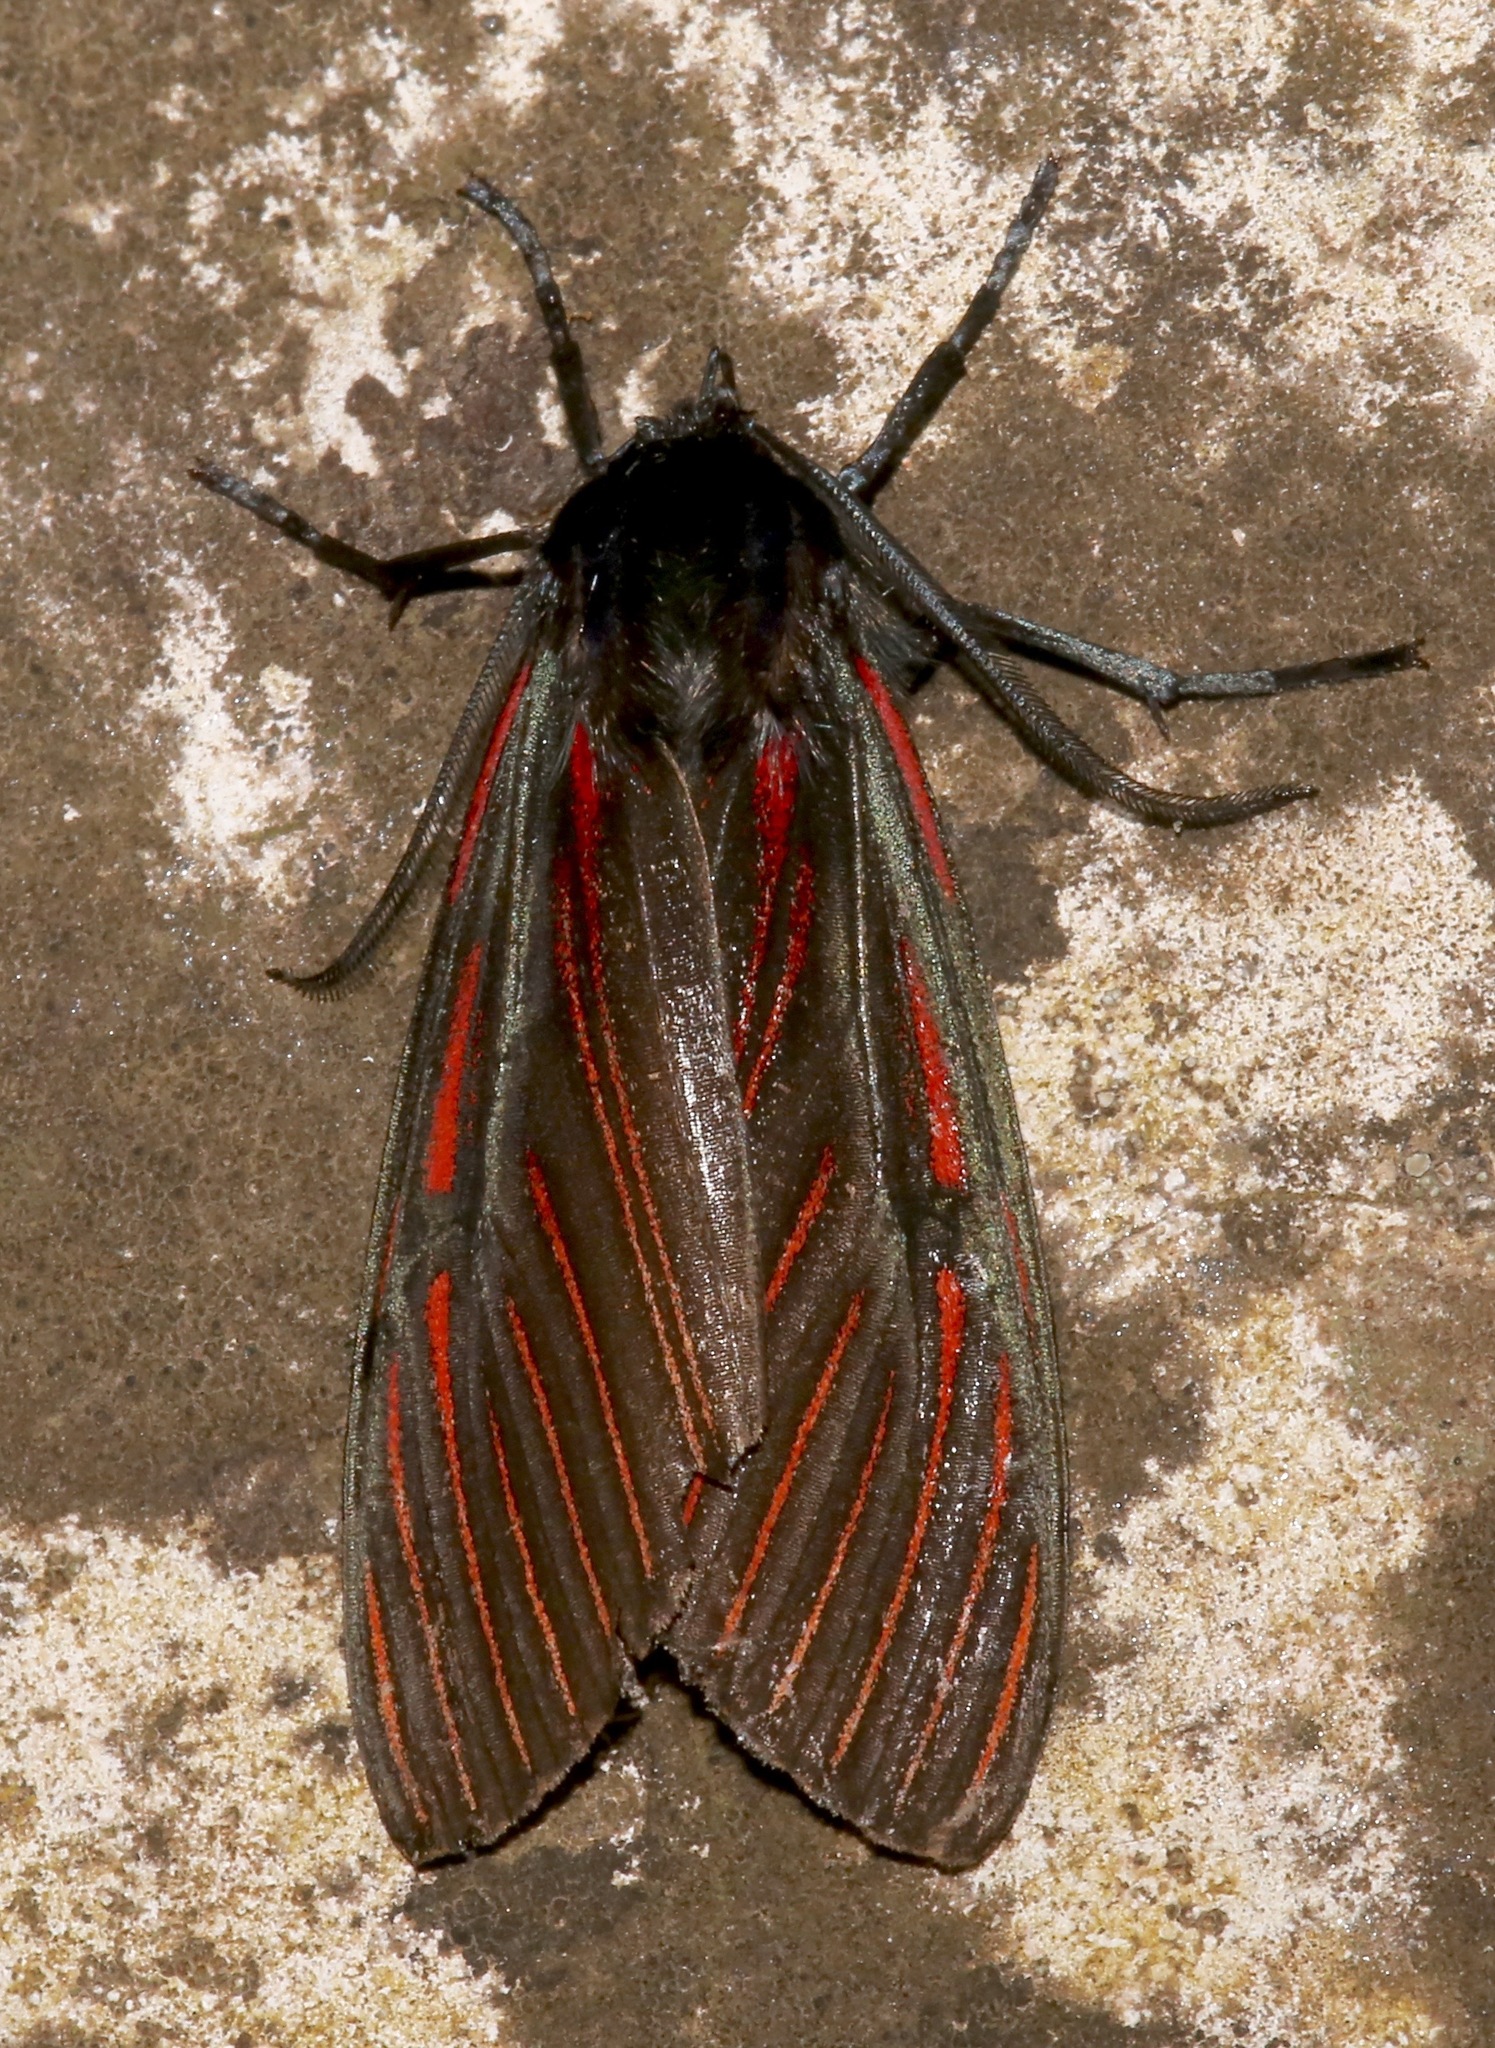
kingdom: Animalia
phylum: Arthropoda
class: Insecta
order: Lepidoptera
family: Erebidae
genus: Anaxita
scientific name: Anaxita suprema
